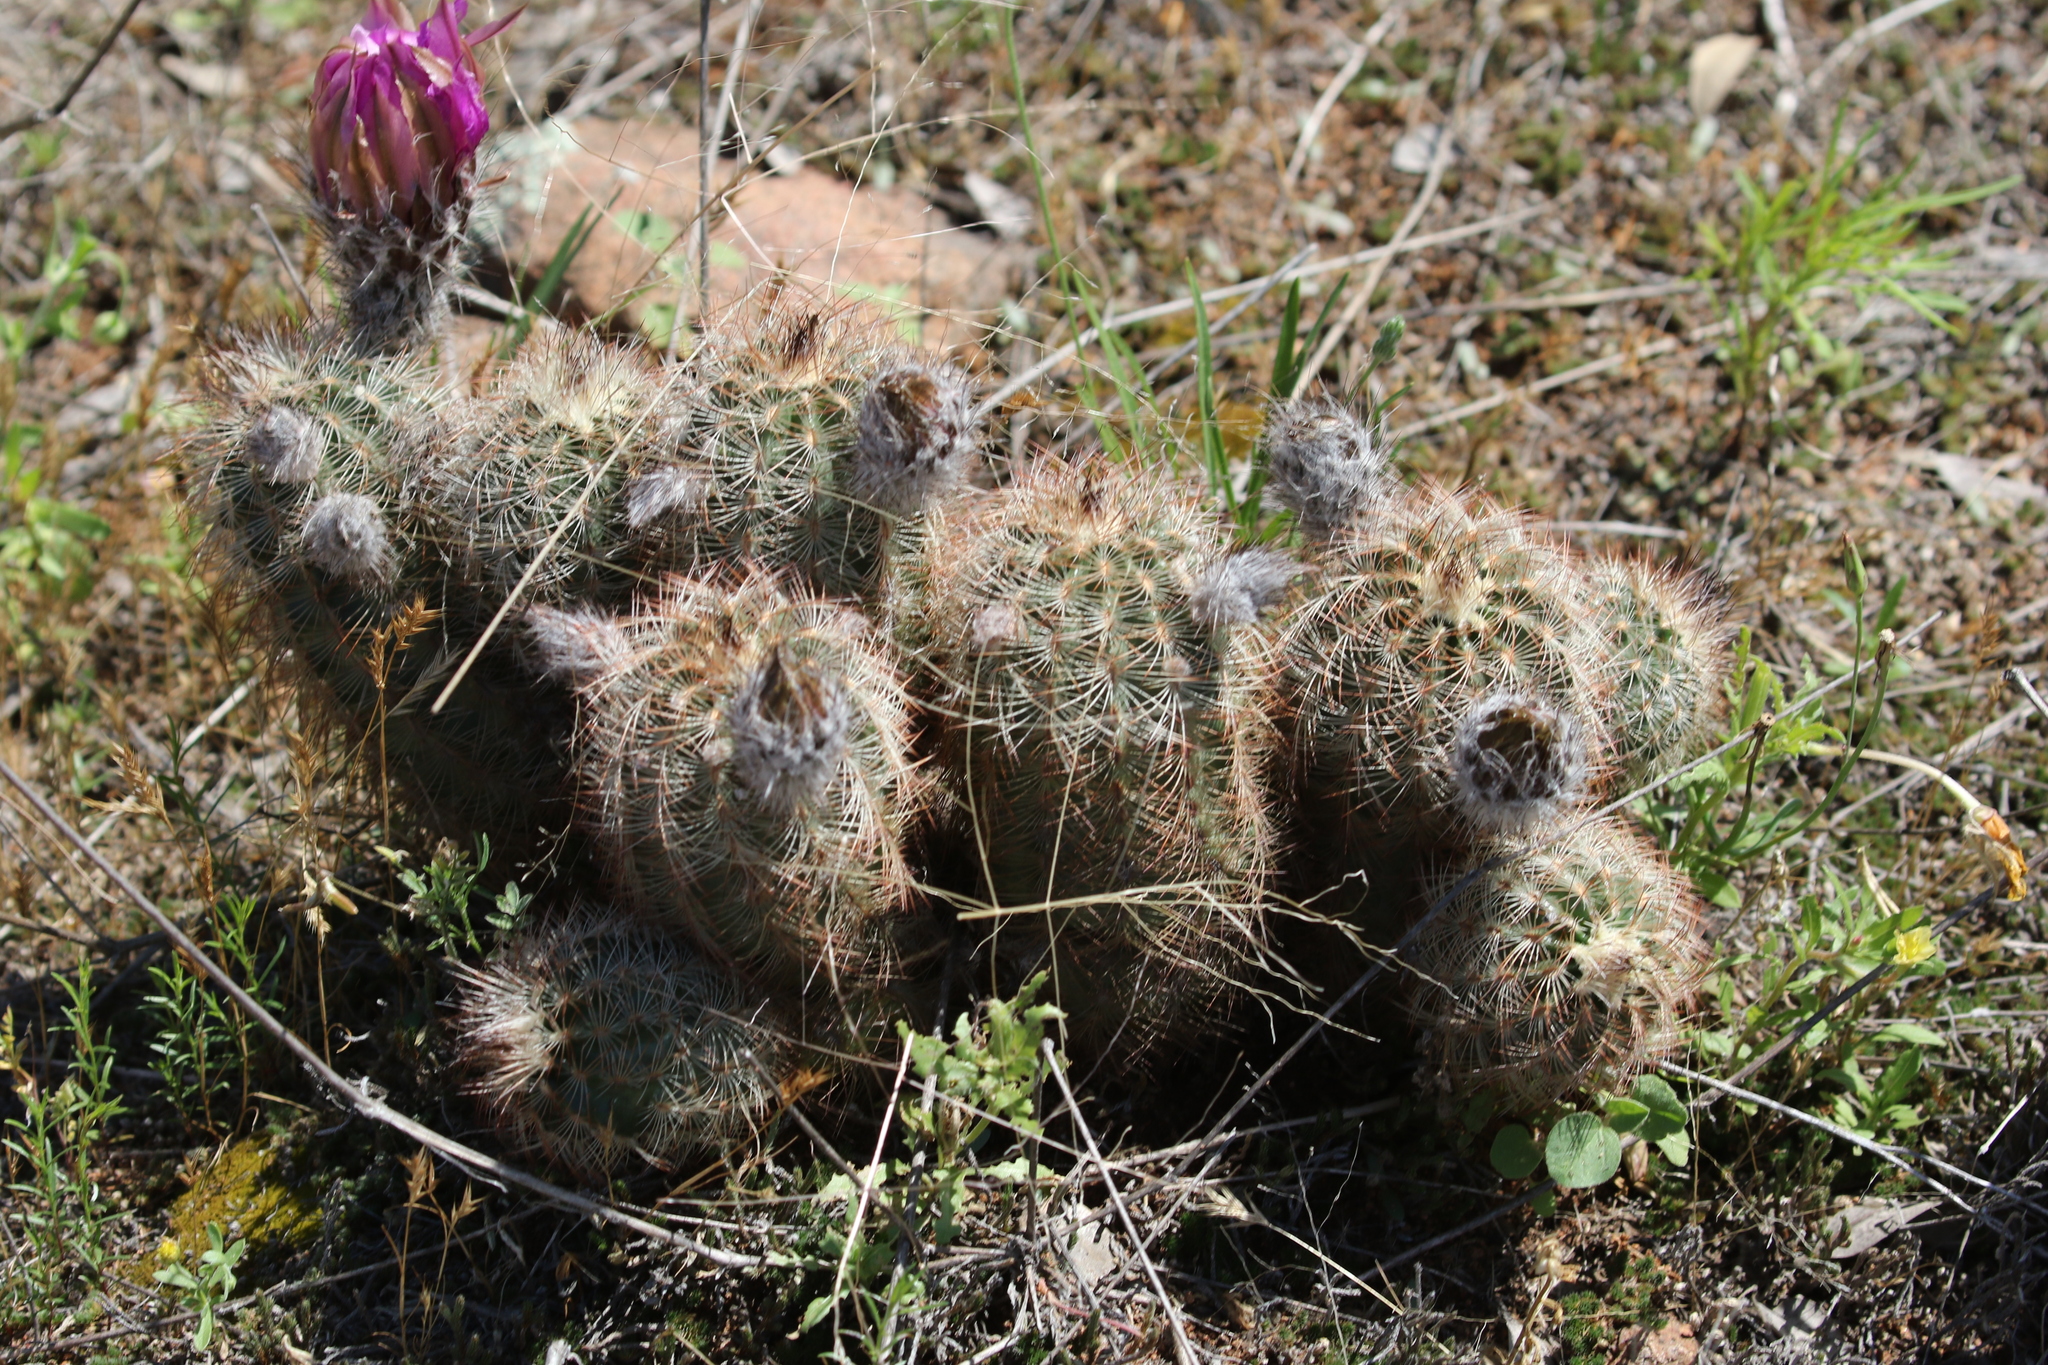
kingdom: Plantae
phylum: Tracheophyta
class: Magnoliopsida
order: Caryophyllales
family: Cactaceae
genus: Echinocereus
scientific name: Echinocereus reichenbachii
